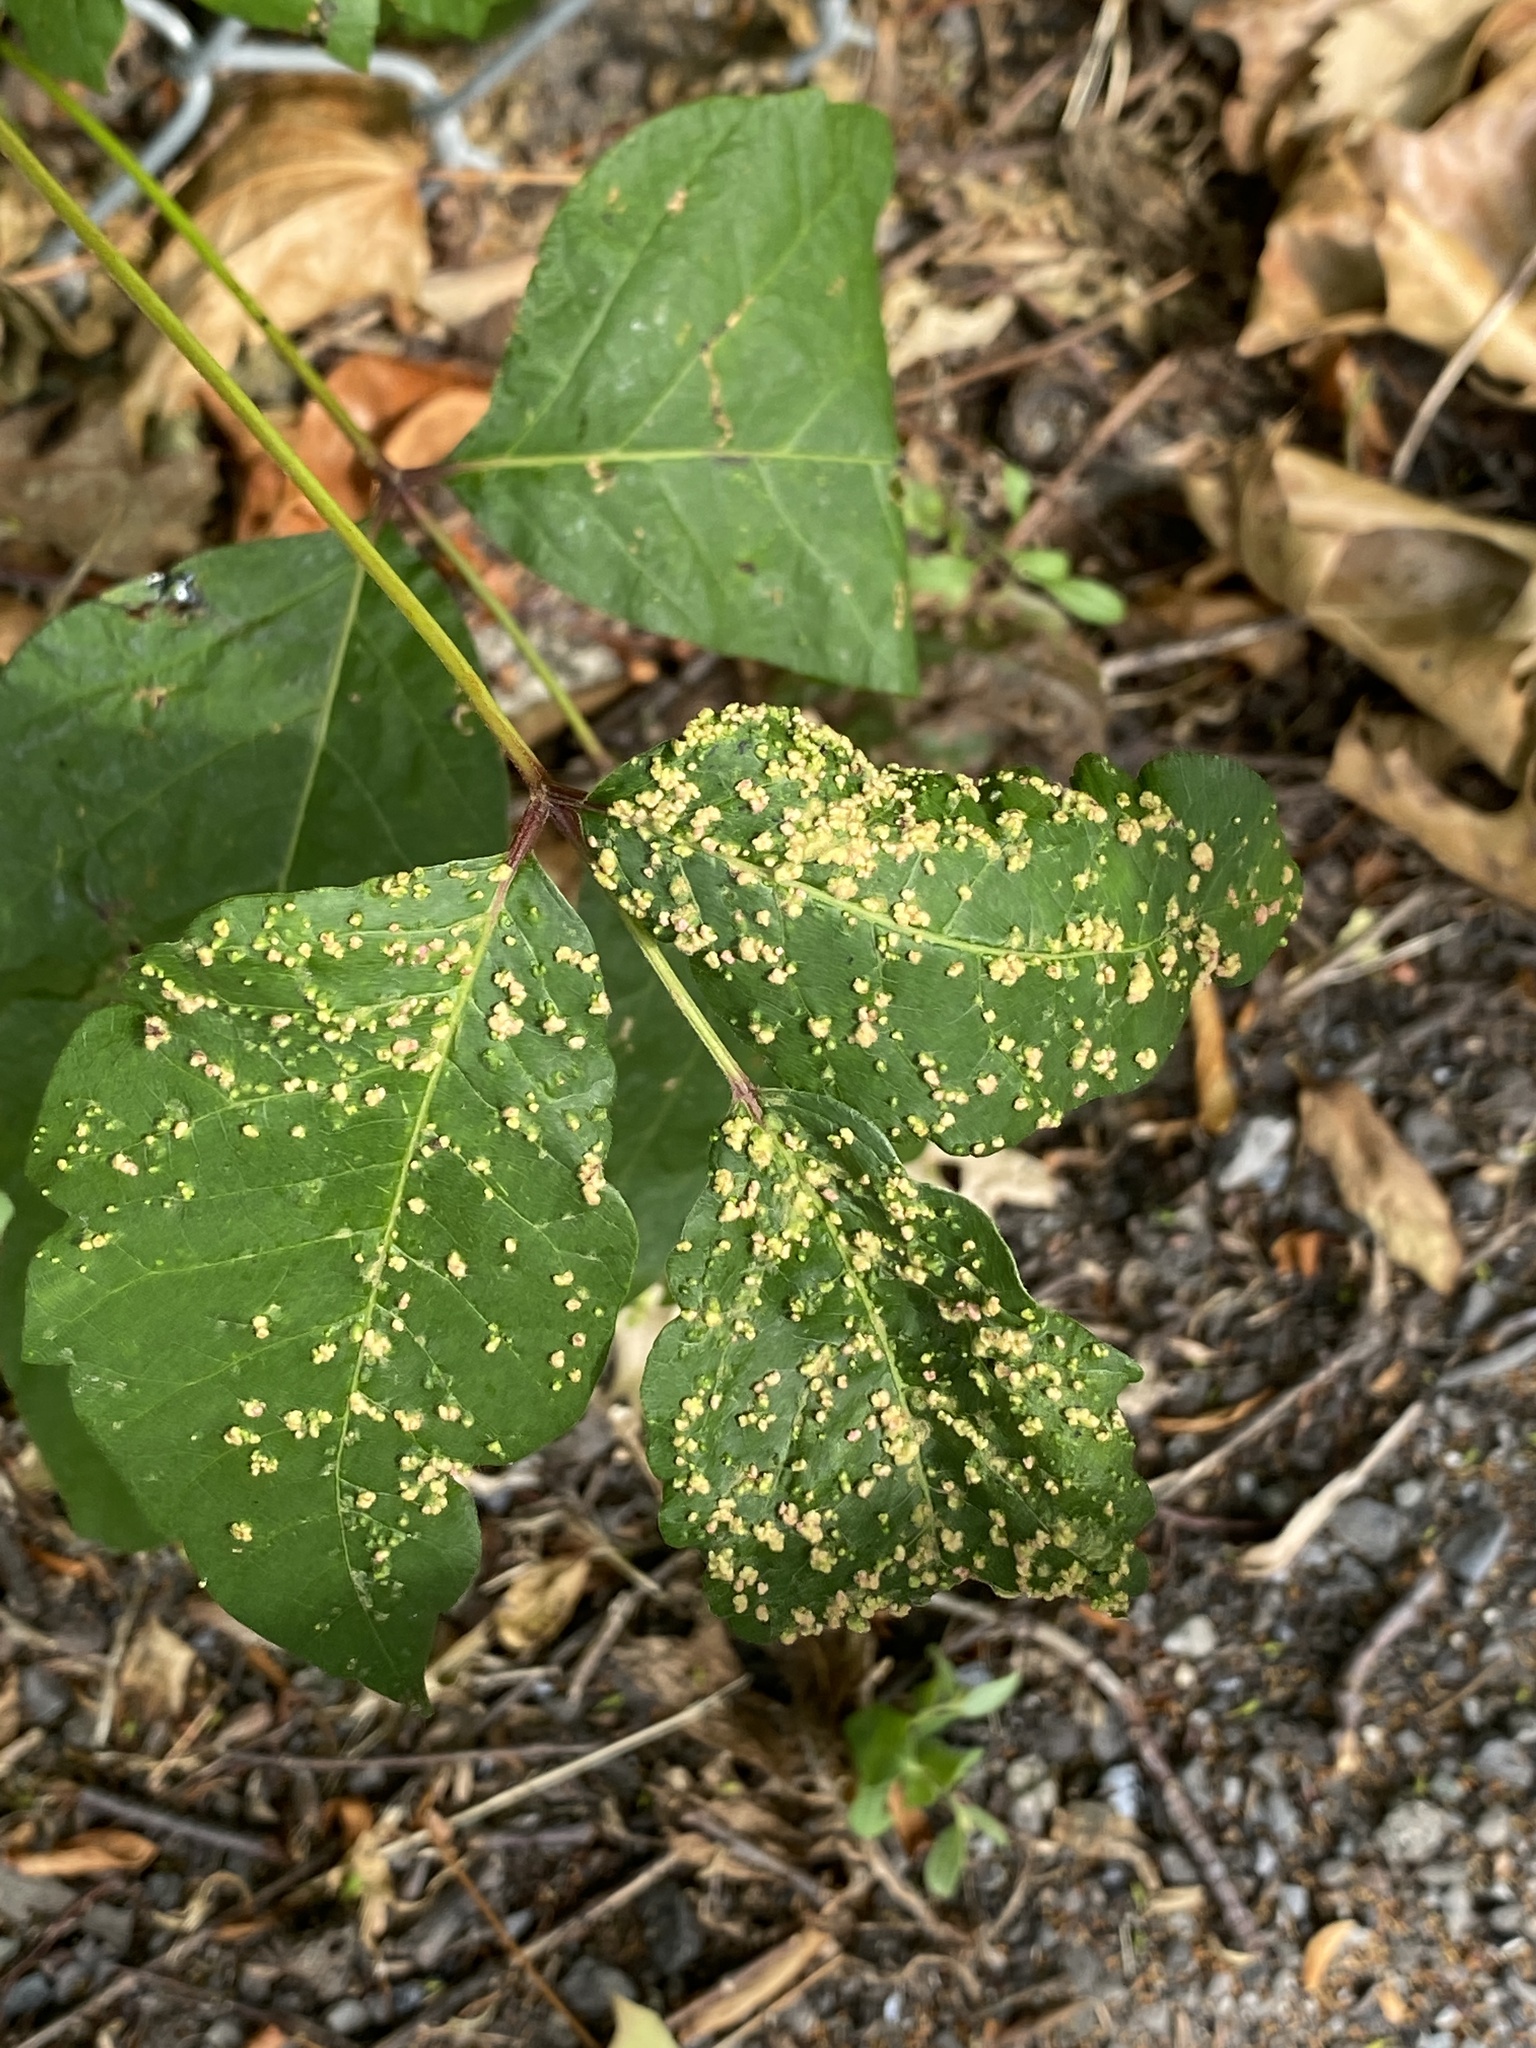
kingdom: Animalia
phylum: Arthropoda
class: Arachnida
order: Trombidiformes
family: Eriophyidae
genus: Aculops
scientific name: Aculops
